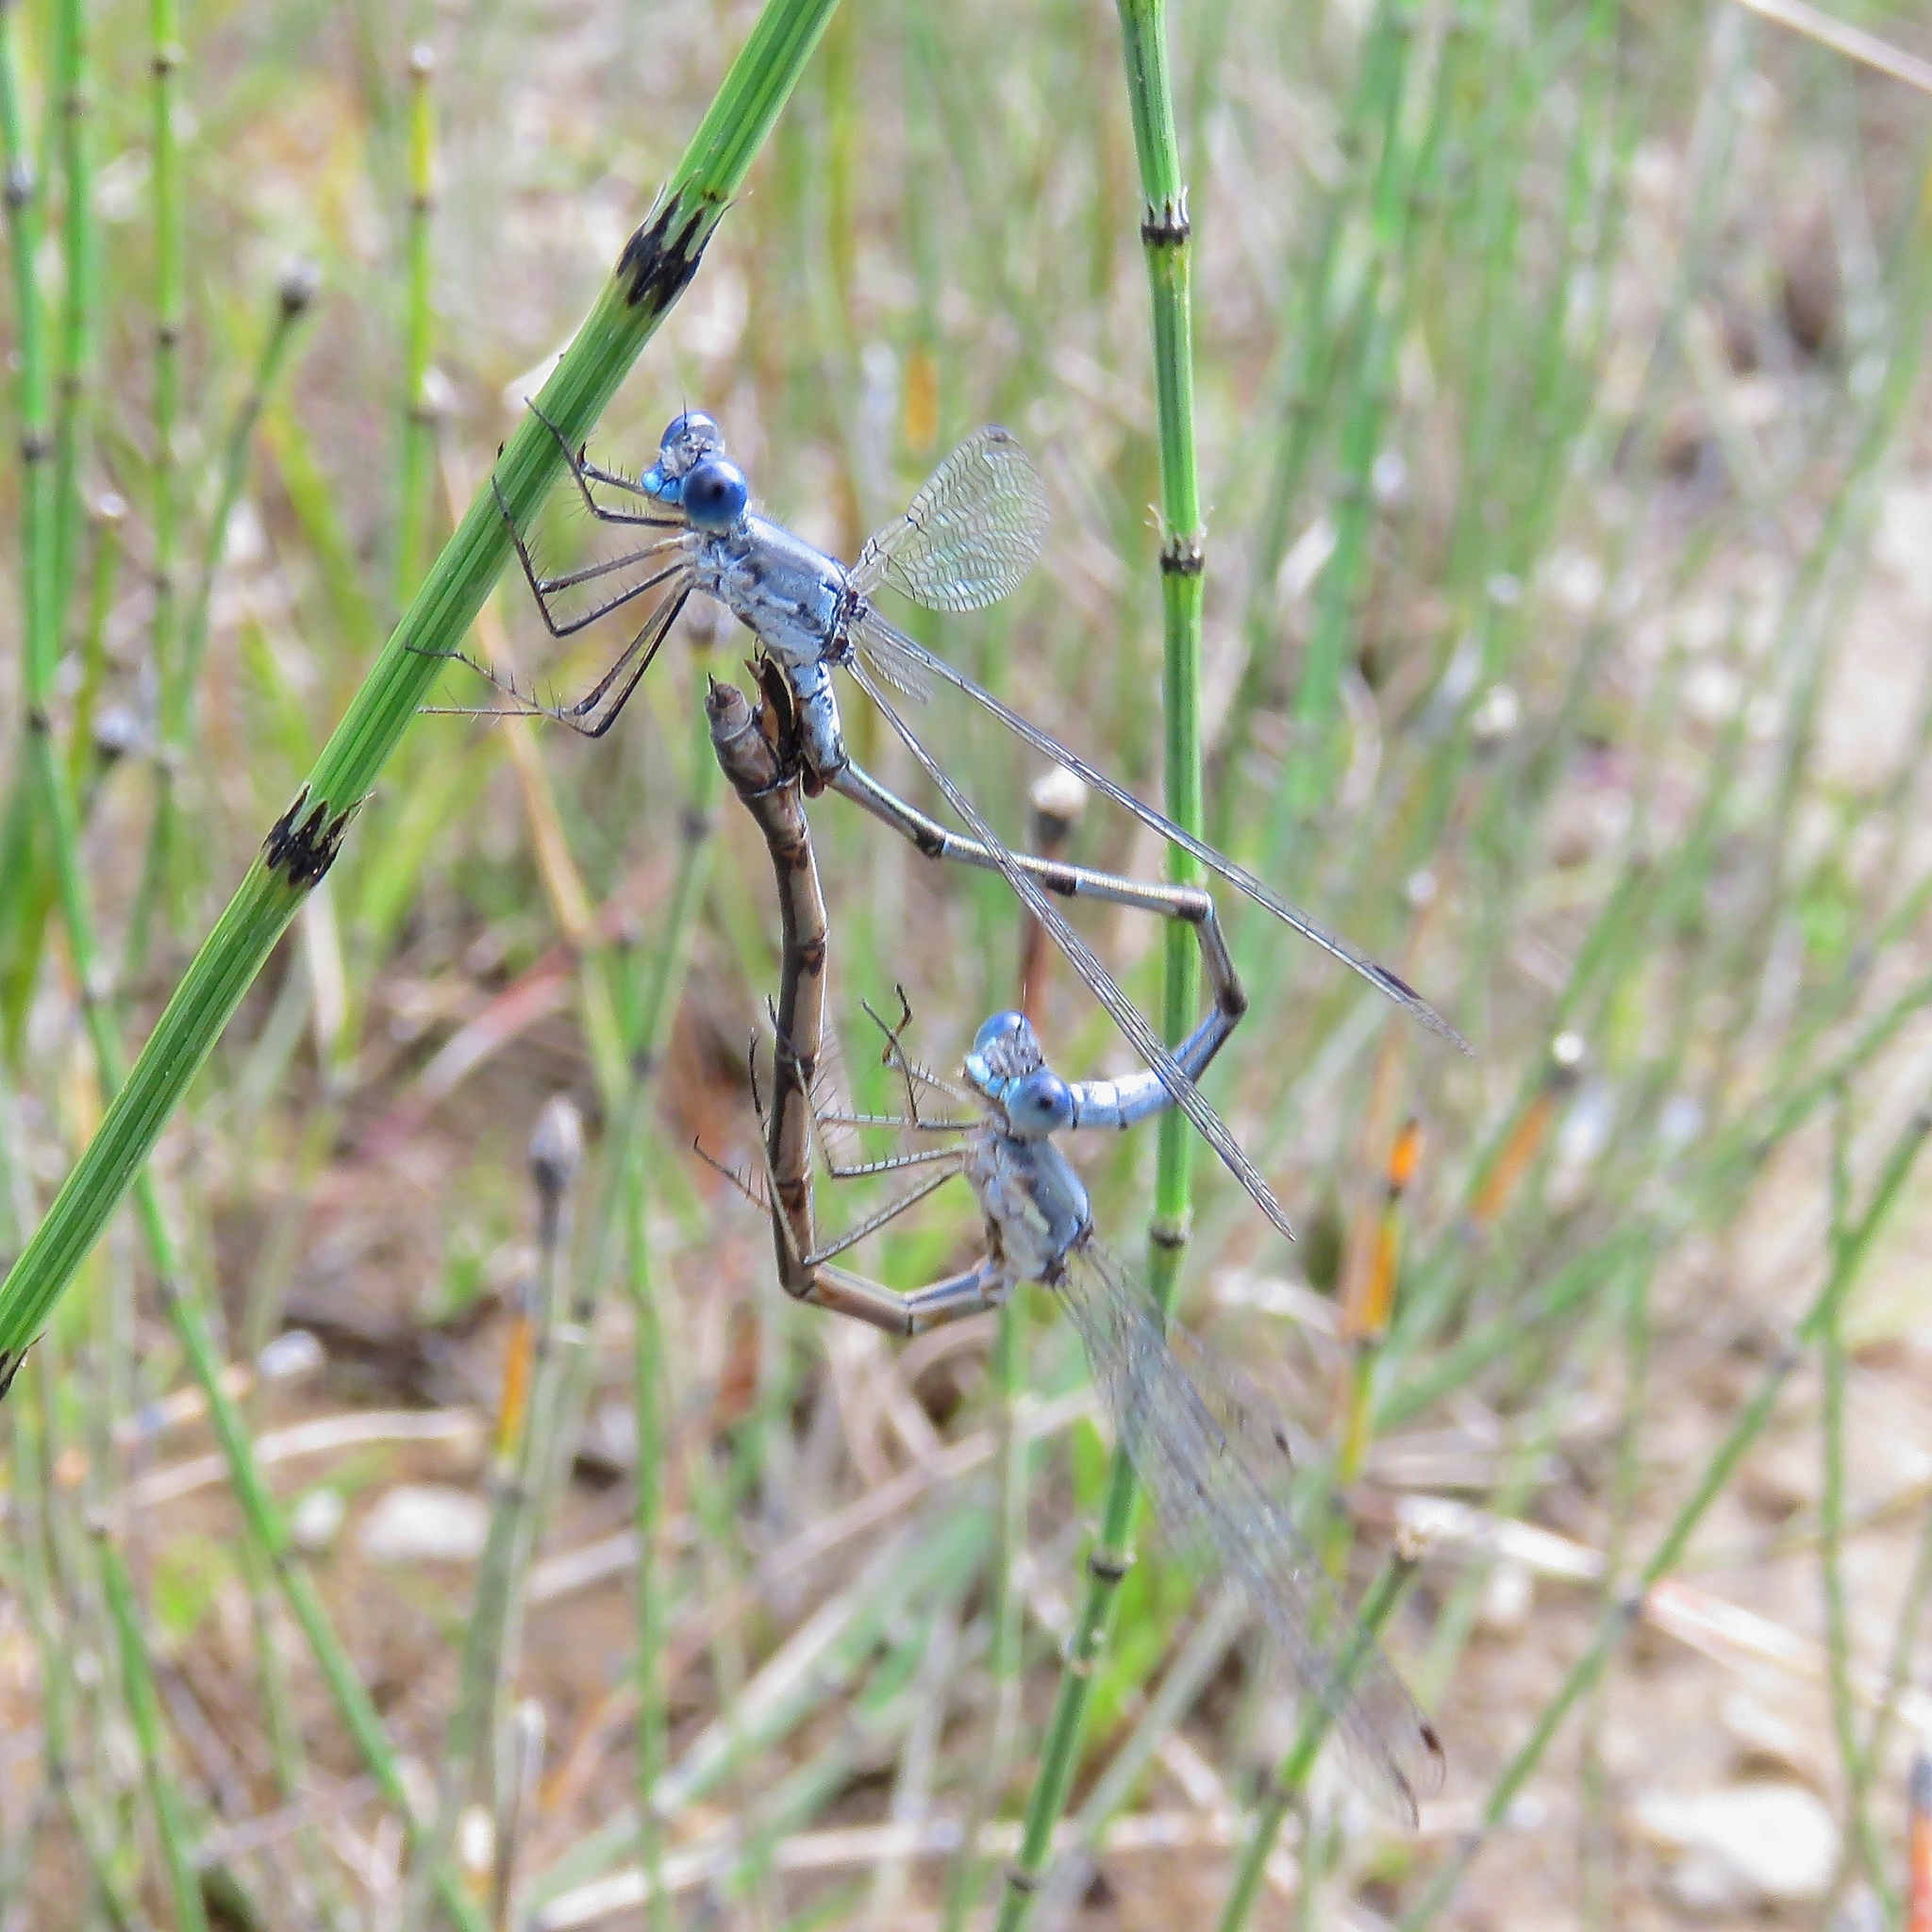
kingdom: Animalia
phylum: Arthropoda
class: Insecta
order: Odonata
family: Lestidae
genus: Lestes
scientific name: Lestes forcipatus
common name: Sweetflag spreadwing
